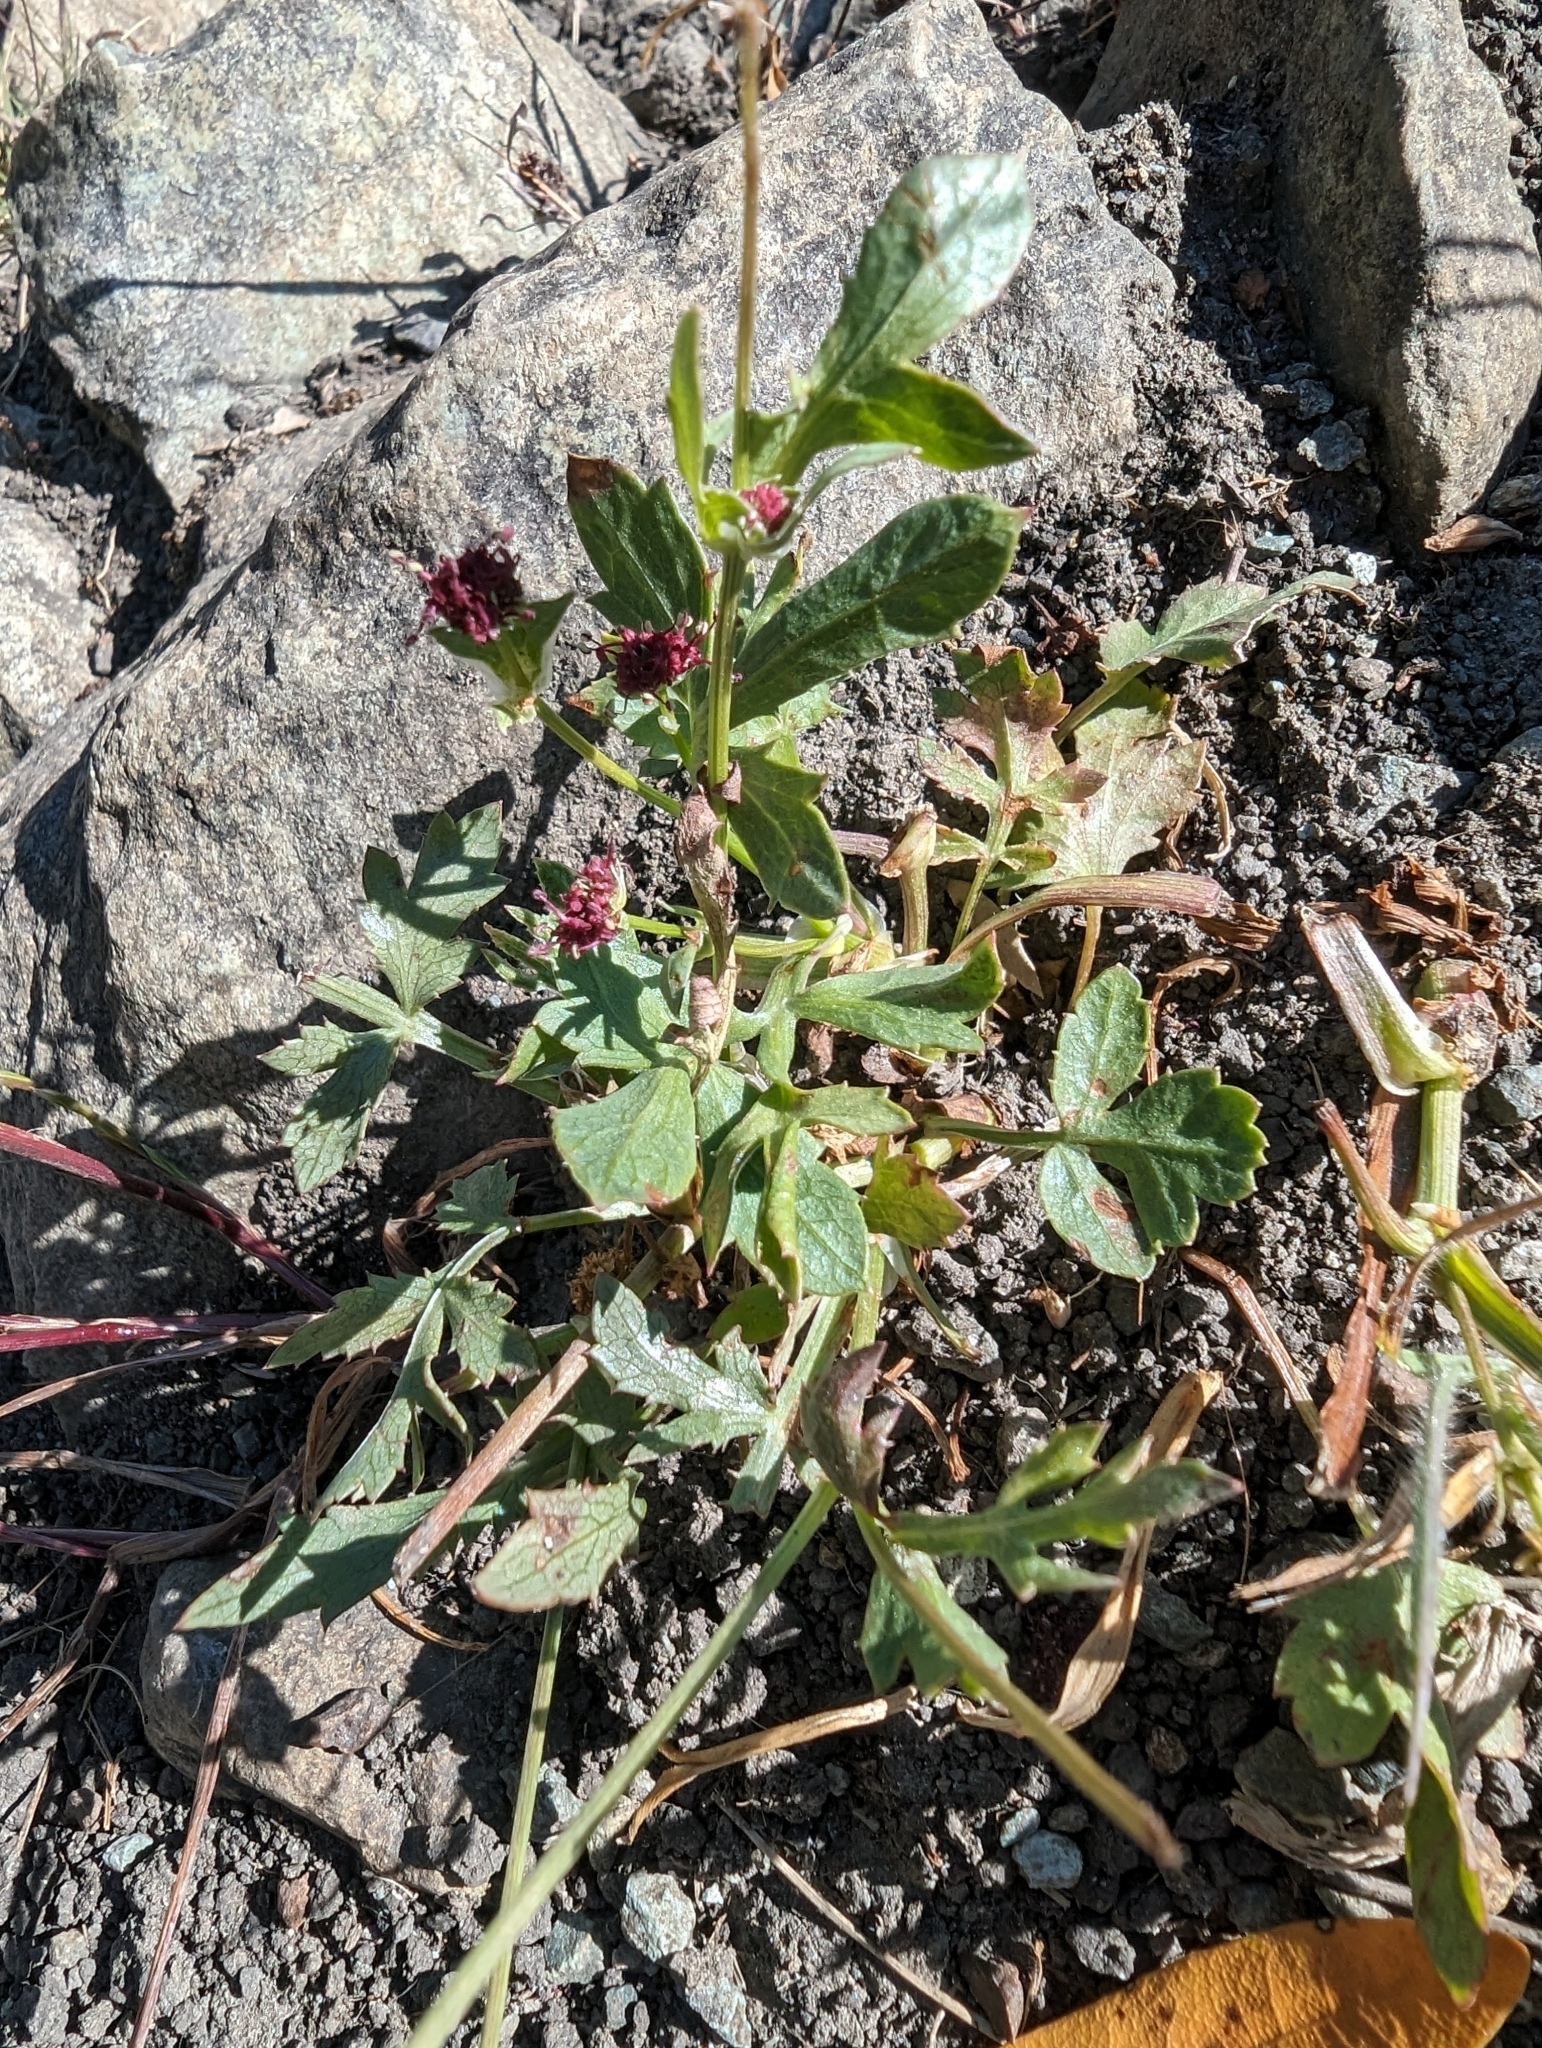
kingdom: Plantae
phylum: Tracheophyta
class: Magnoliopsida
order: Apiales
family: Apiaceae
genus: Sanicula
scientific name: Sanicula bipinnatifida
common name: Shoe-buttons
